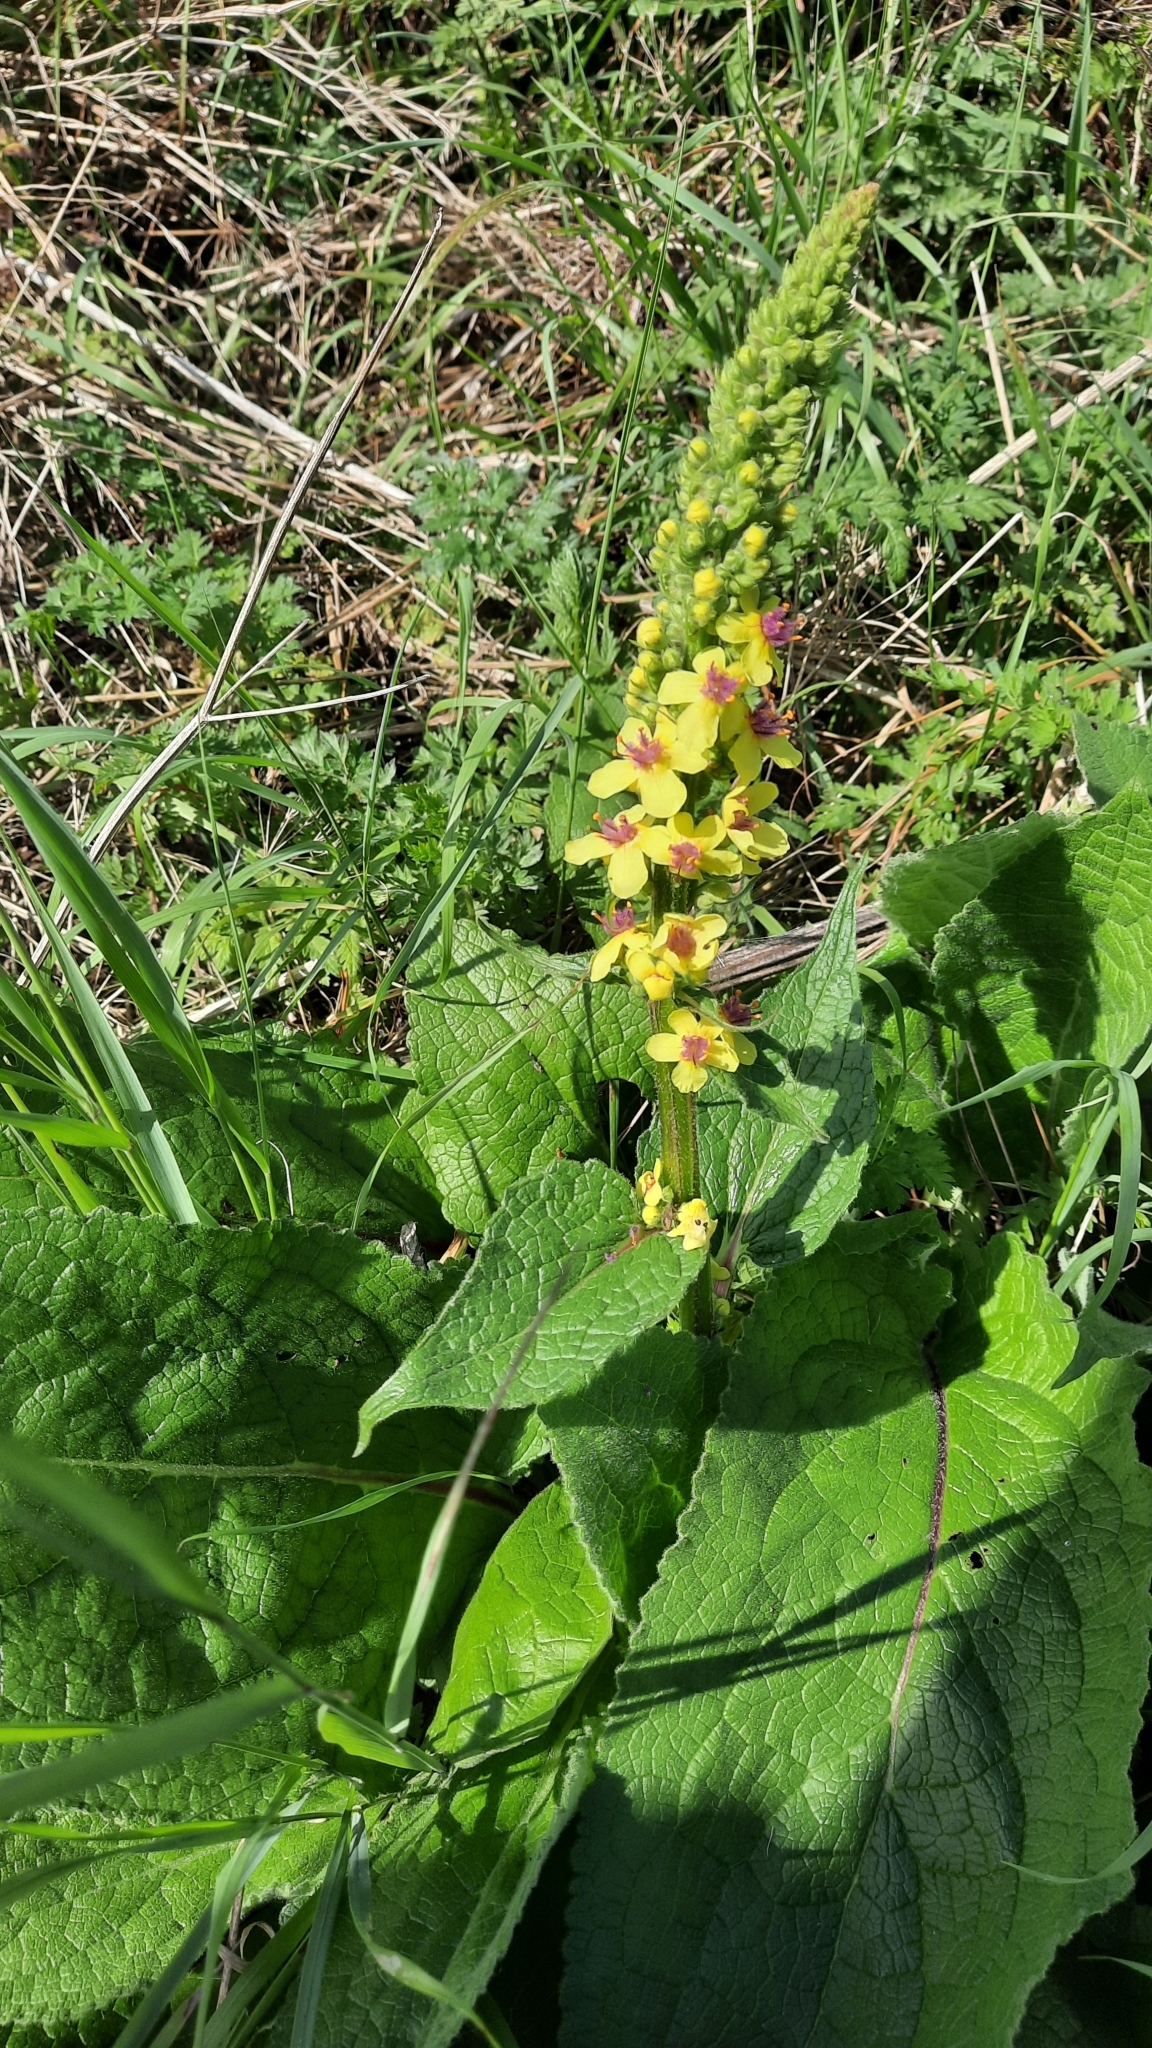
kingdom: Plantae
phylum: Tracheophyta
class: Magnoliopsida
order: Lamiales
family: Scrophulariaceae
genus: Verbascum
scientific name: Verbascum nigrum
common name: Dark mullein
